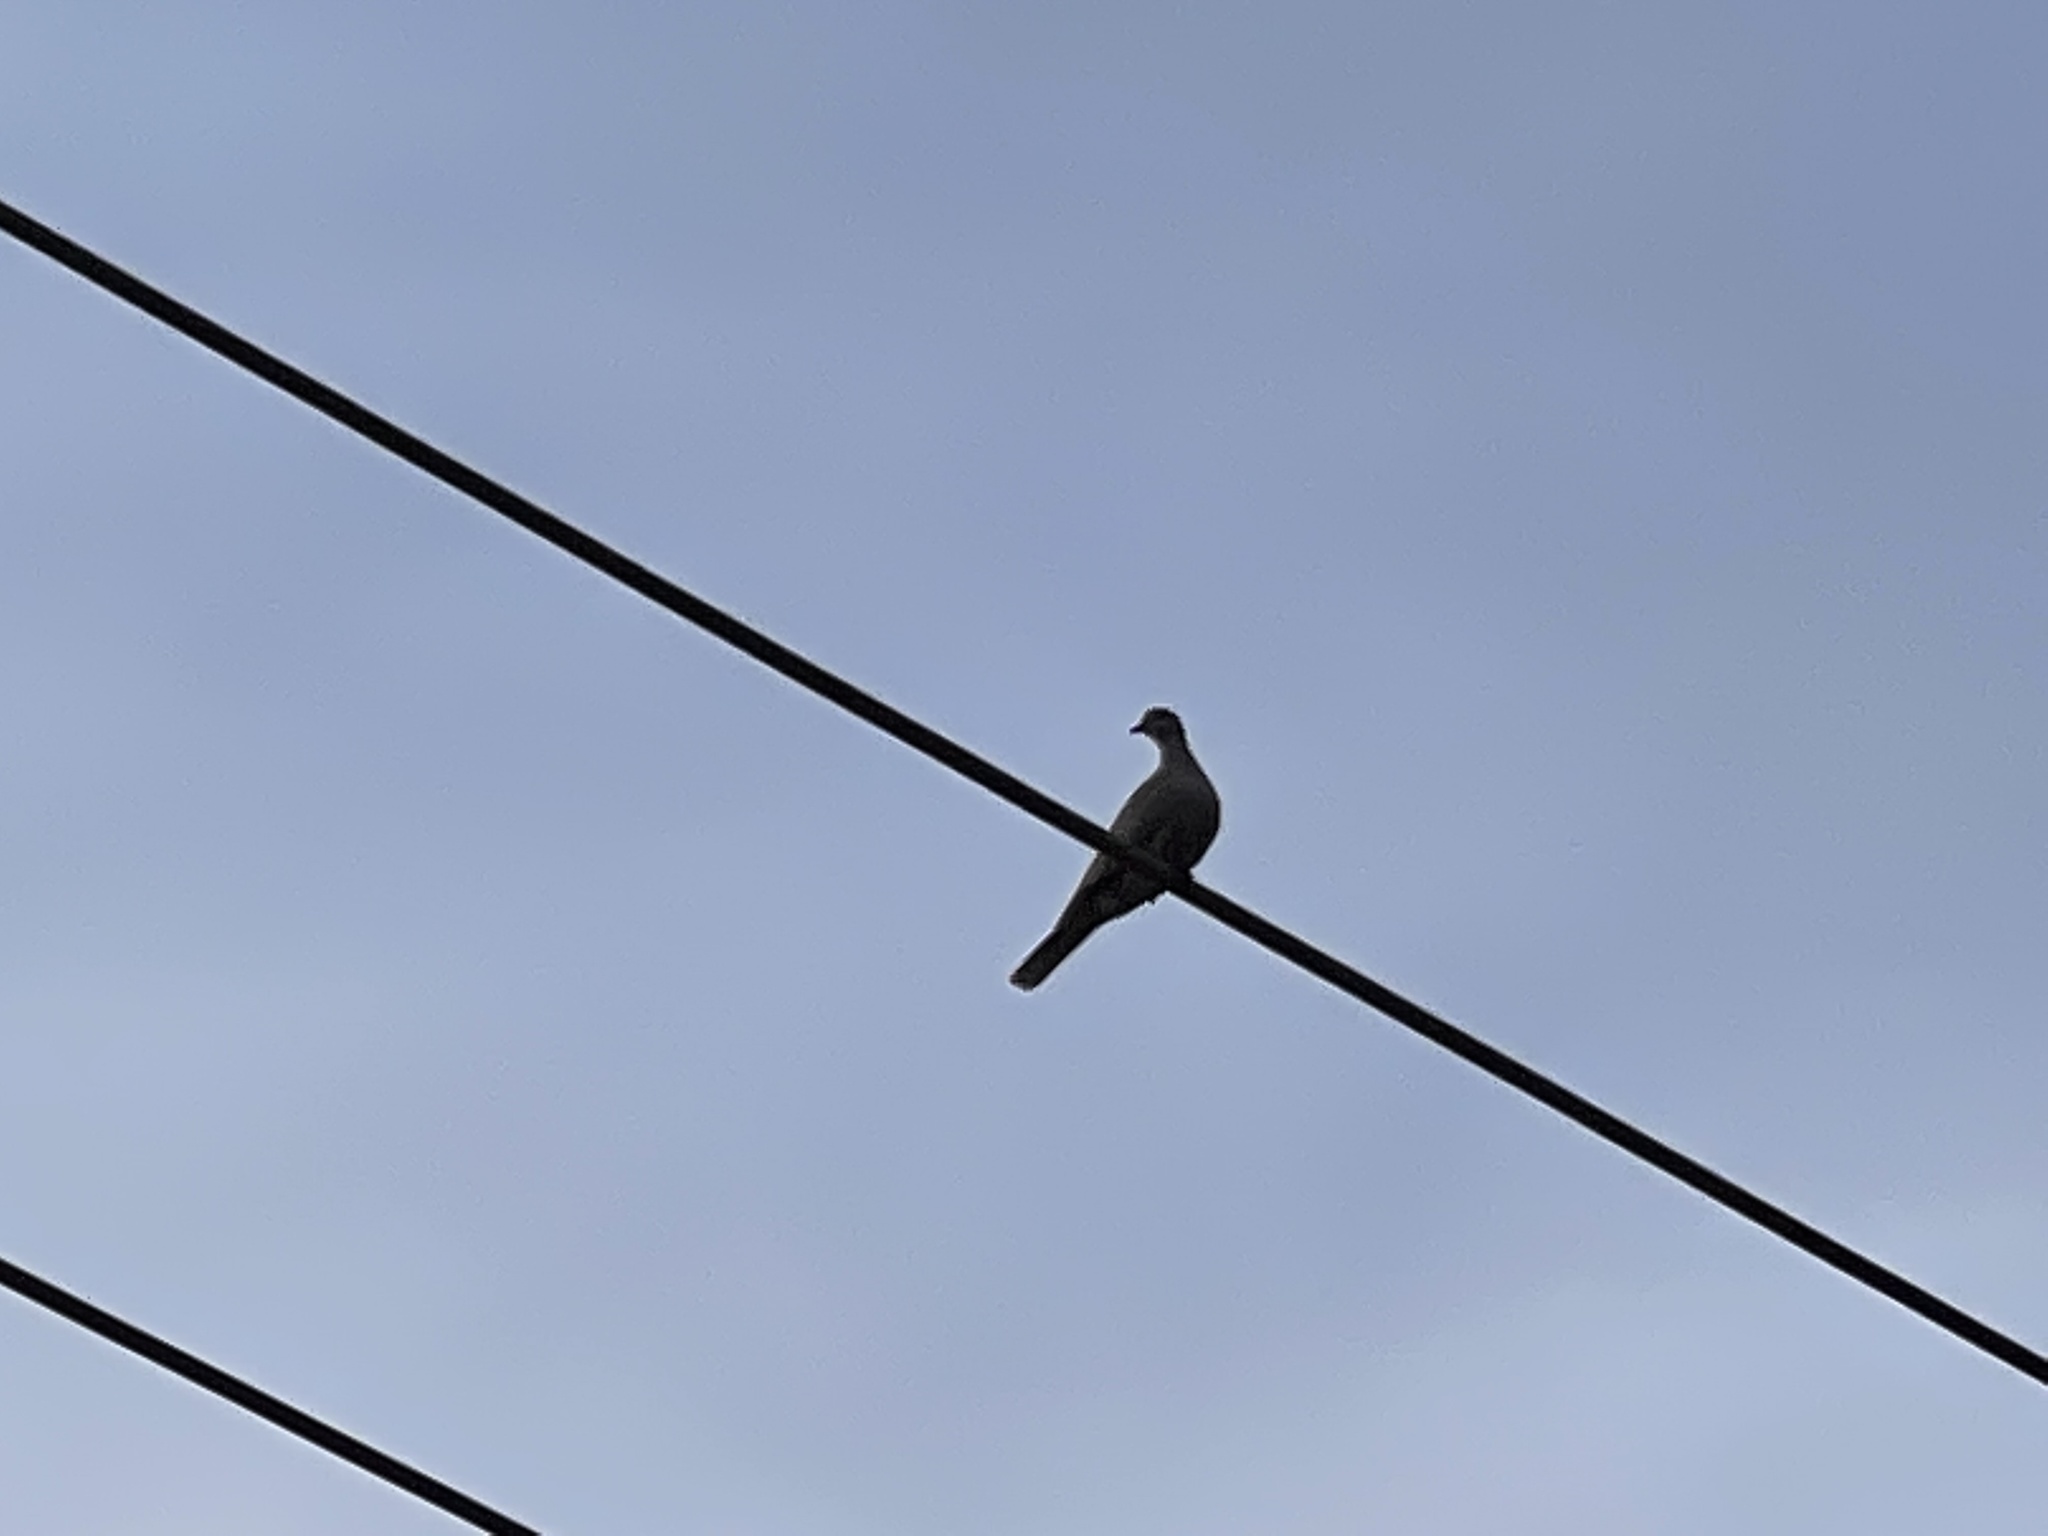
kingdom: Animalia
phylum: Chordata
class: Aves
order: Columbiformes
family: Columbidae
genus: Streptopelia
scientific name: Streptopelia decaocto
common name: Eurasian collared dove
